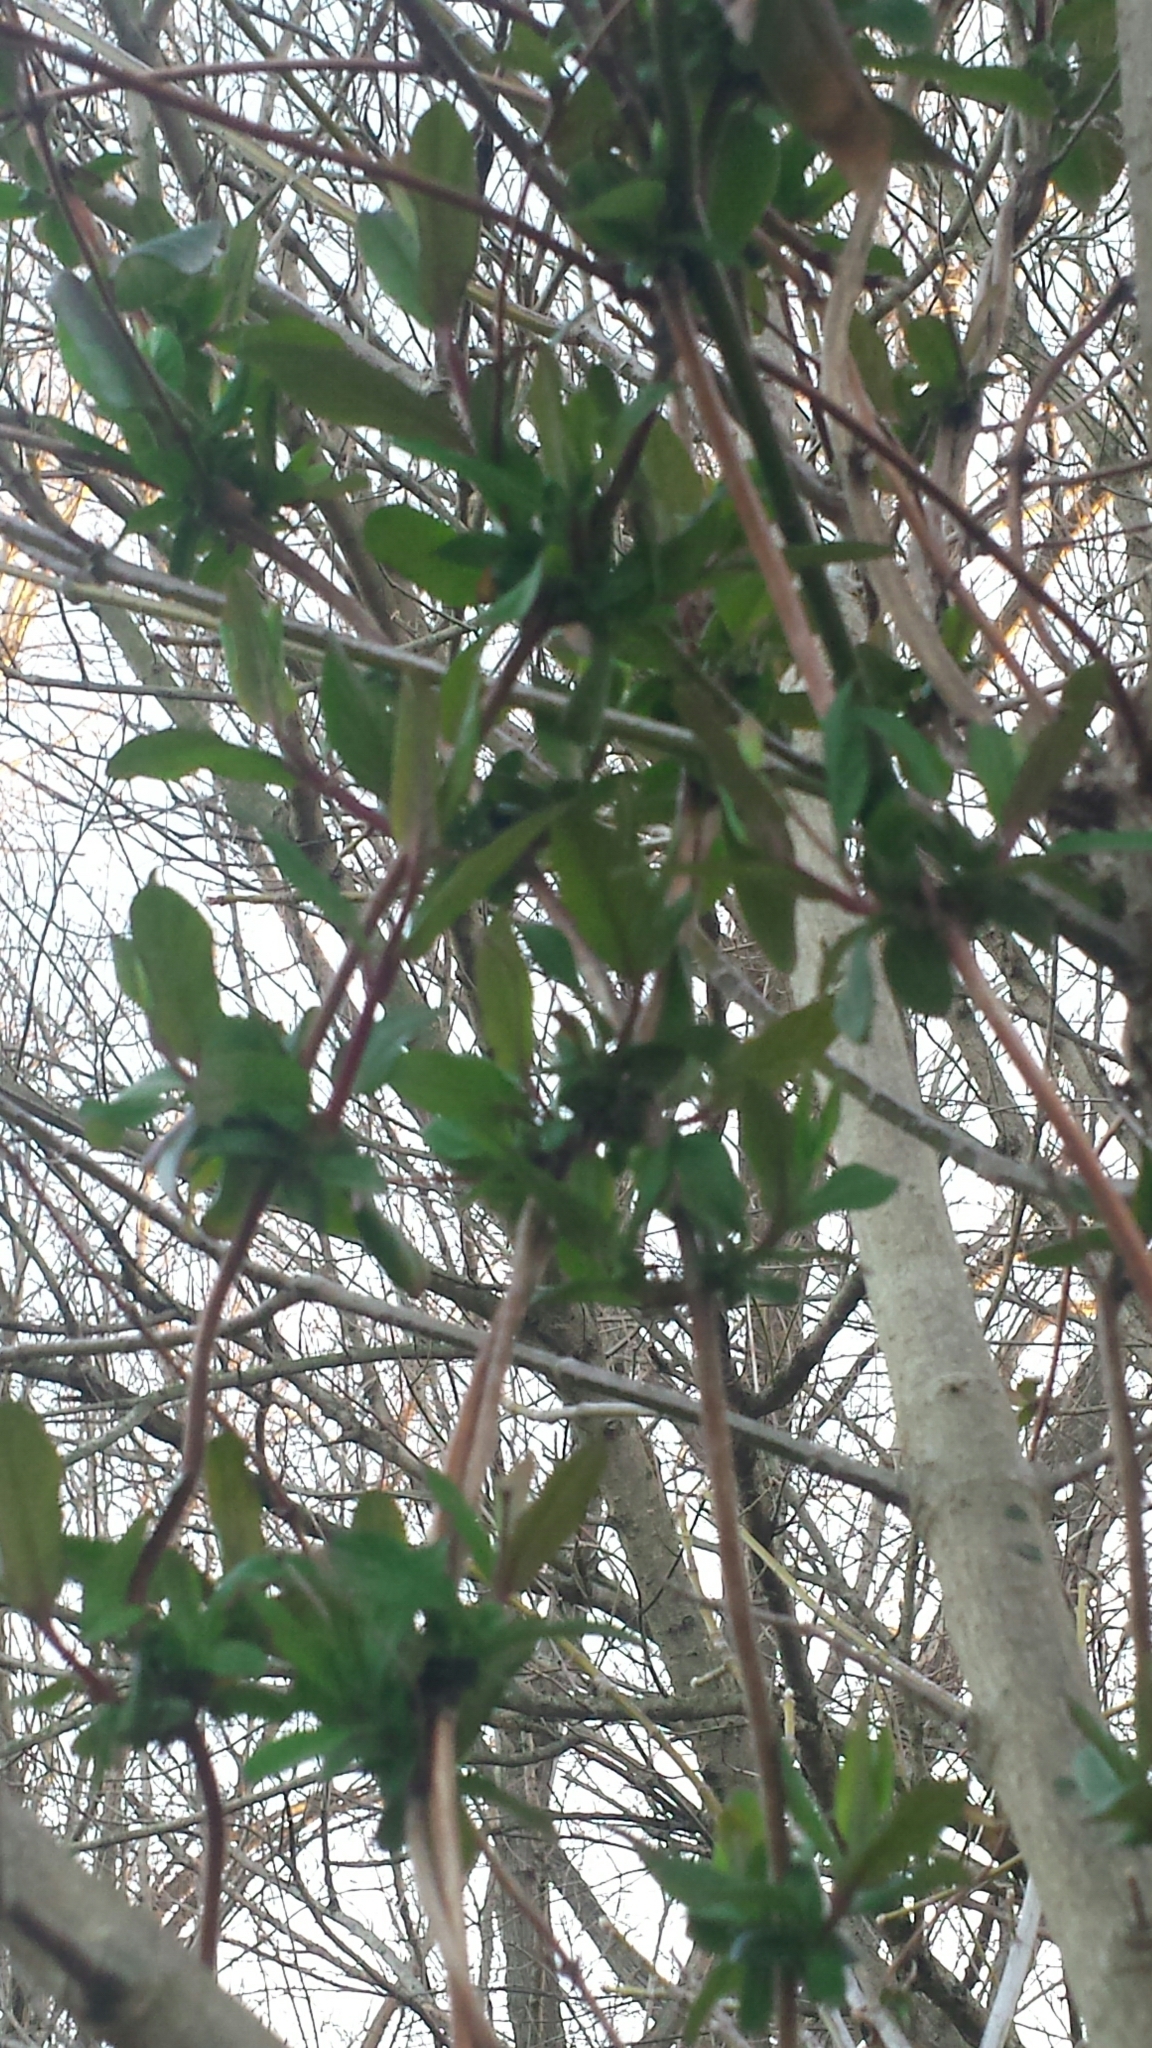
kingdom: Plantae
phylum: Tracheophyta
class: Magnoliopsida
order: Dipsacales
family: Caprifoliaceae
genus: Lonicera
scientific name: Lonicera japonica
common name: Japanese honeysuckle
